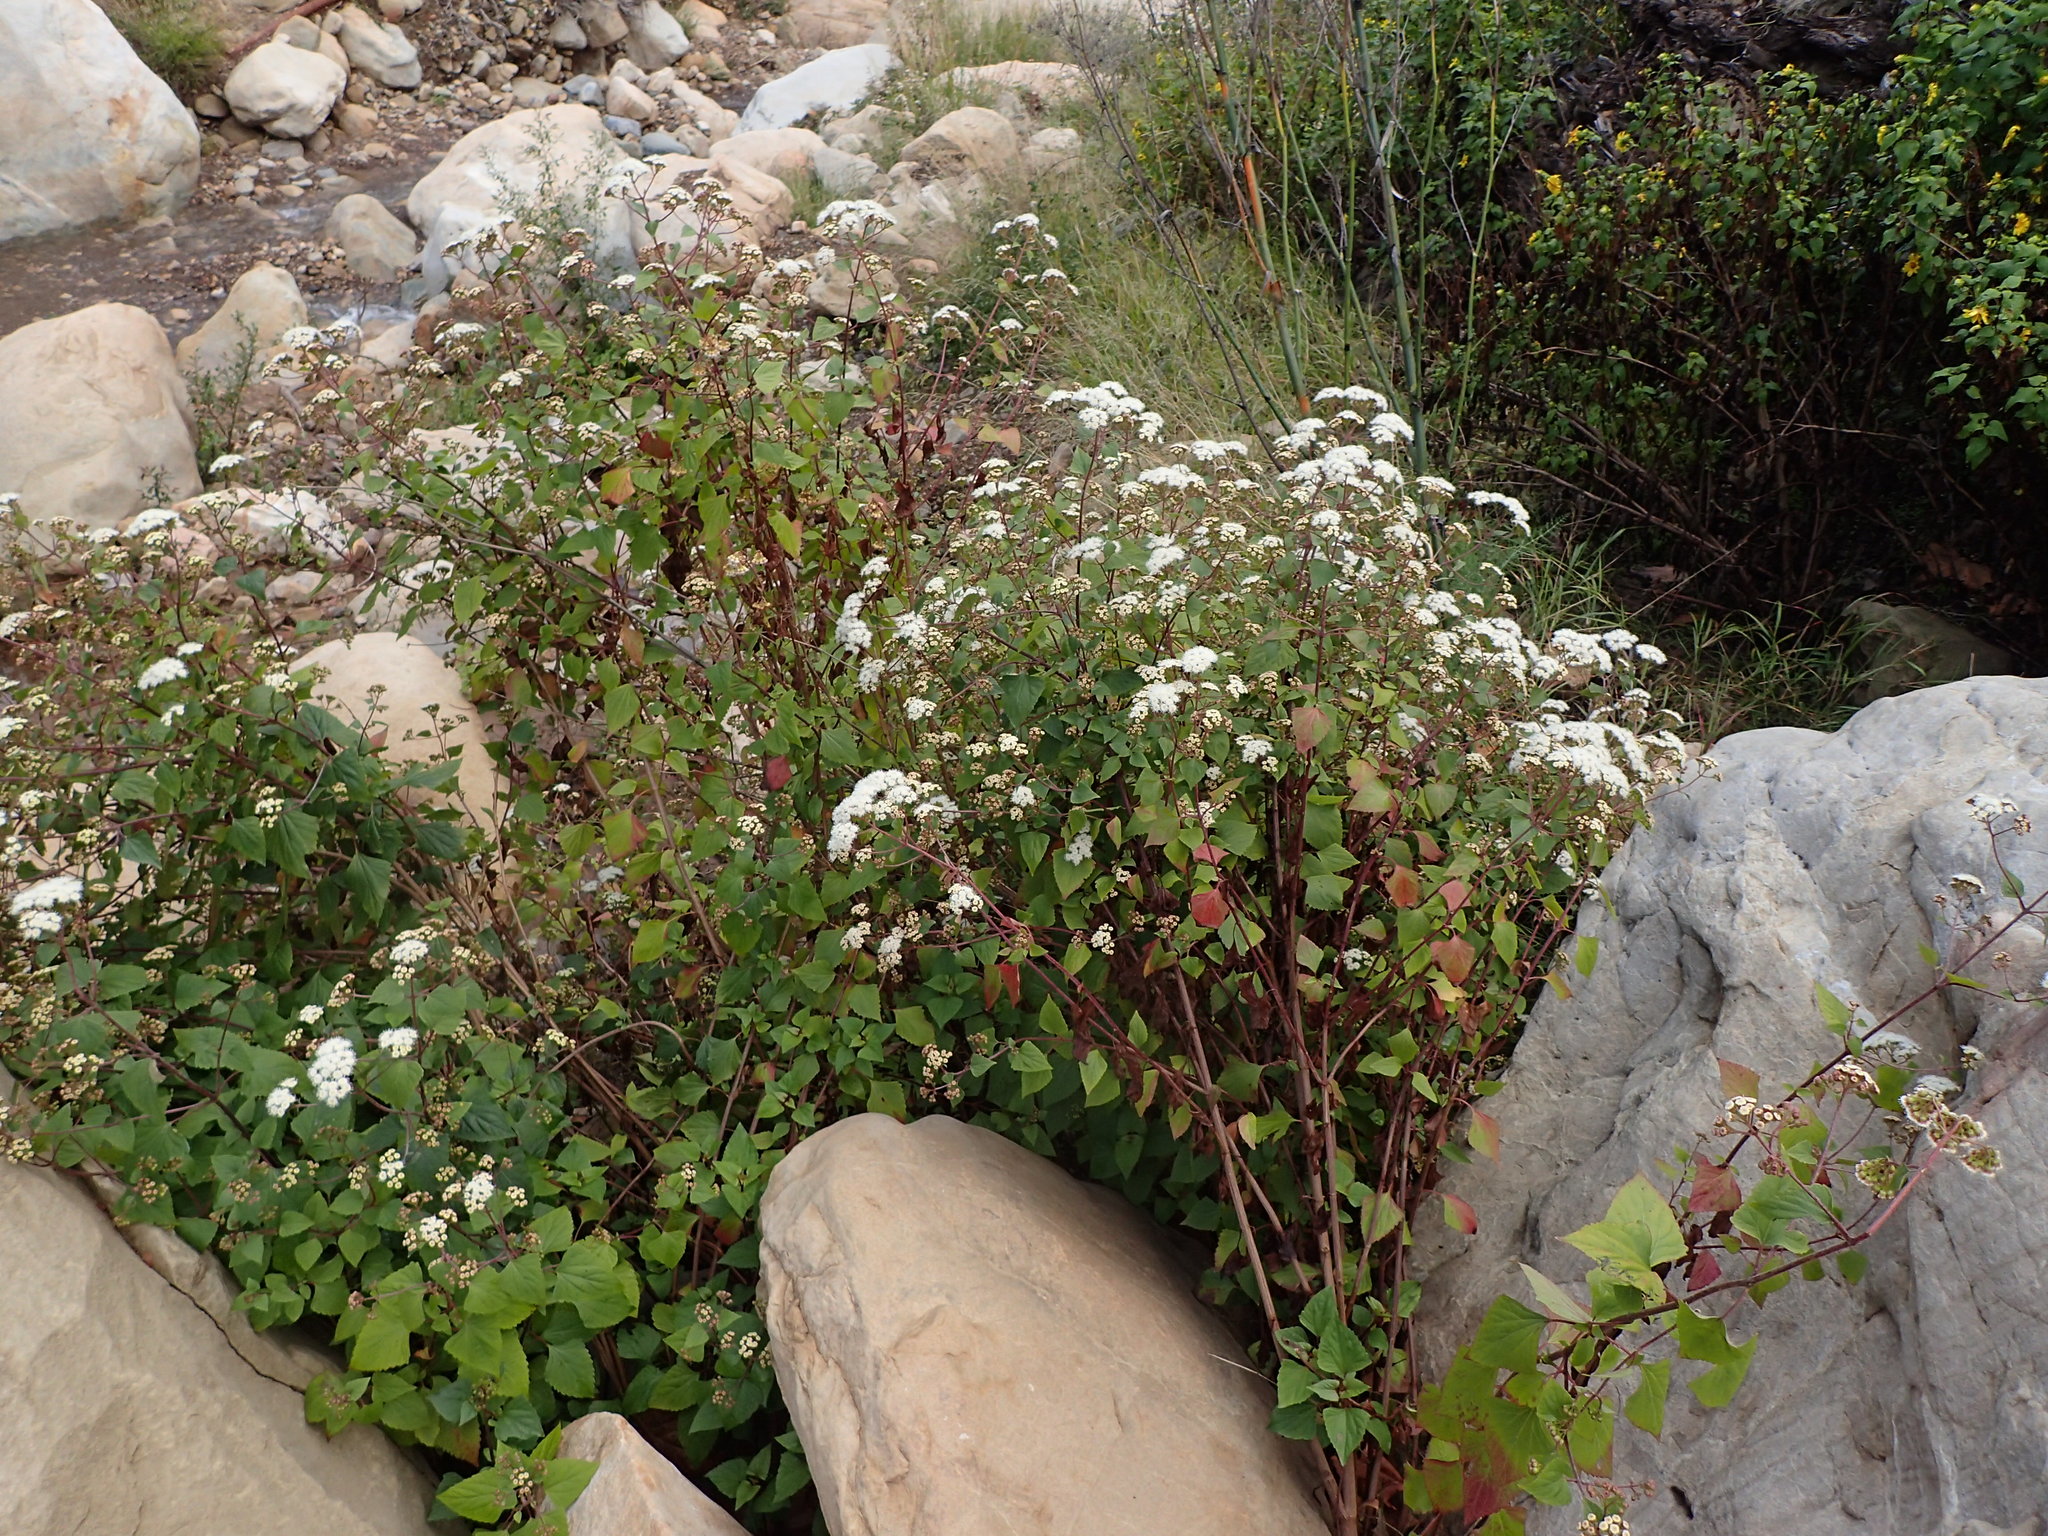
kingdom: Plantae
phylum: Tracheophyta
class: Magnoliopsida
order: Asterales
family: Asteraceae
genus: Ageratina
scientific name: Ageratina adenophora
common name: Sticky snakeroot
